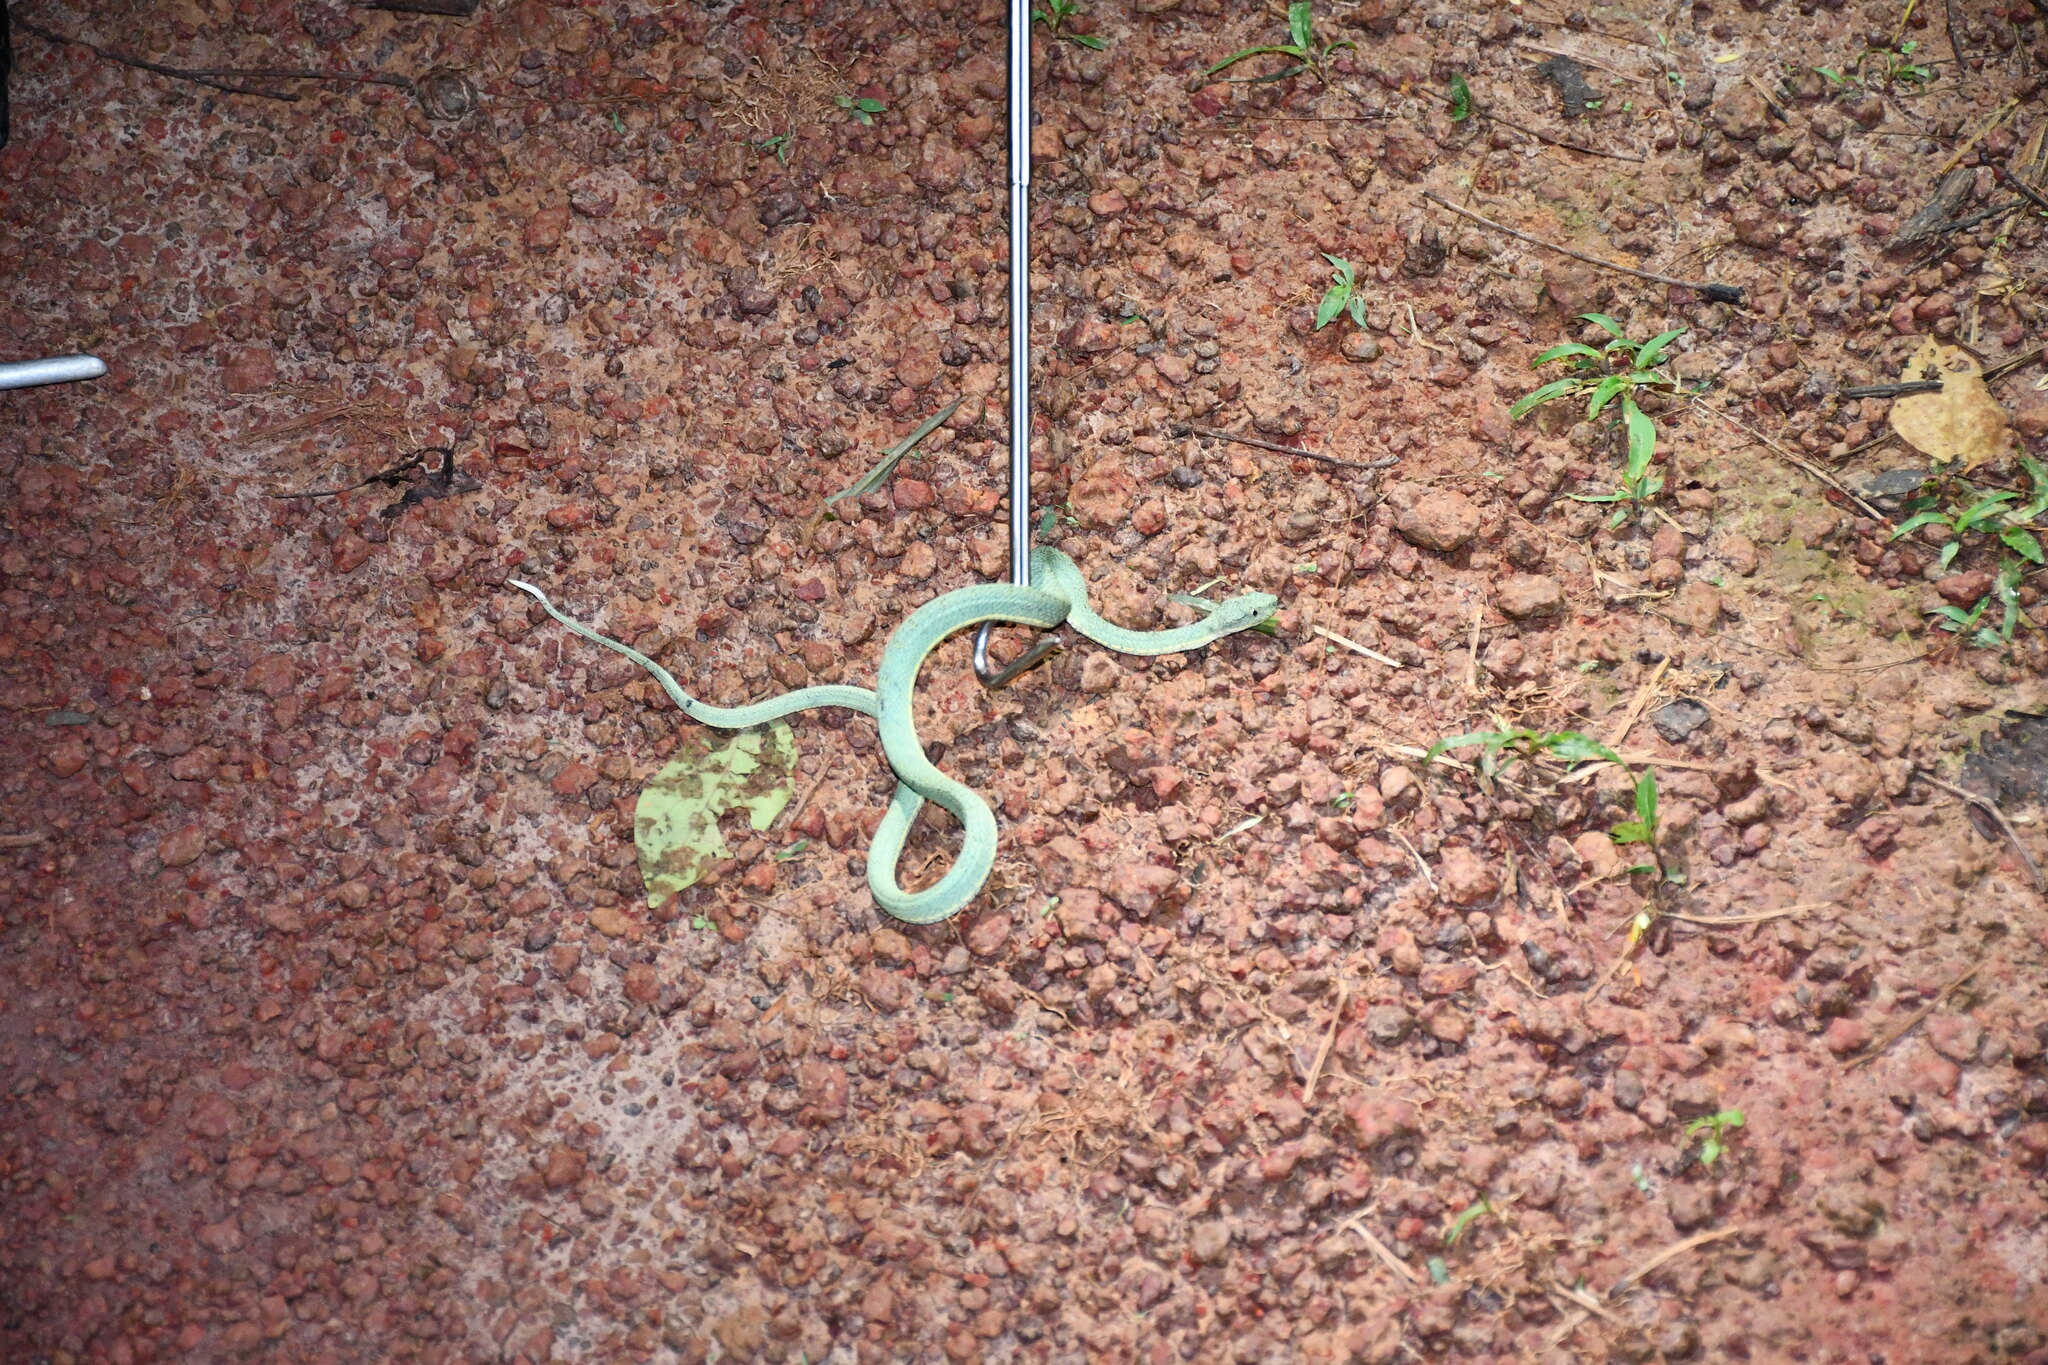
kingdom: Animalia
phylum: Chordata
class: Squamata
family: Viperidae
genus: Bothrops
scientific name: Bothrops bilineatus
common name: Green jararaca
